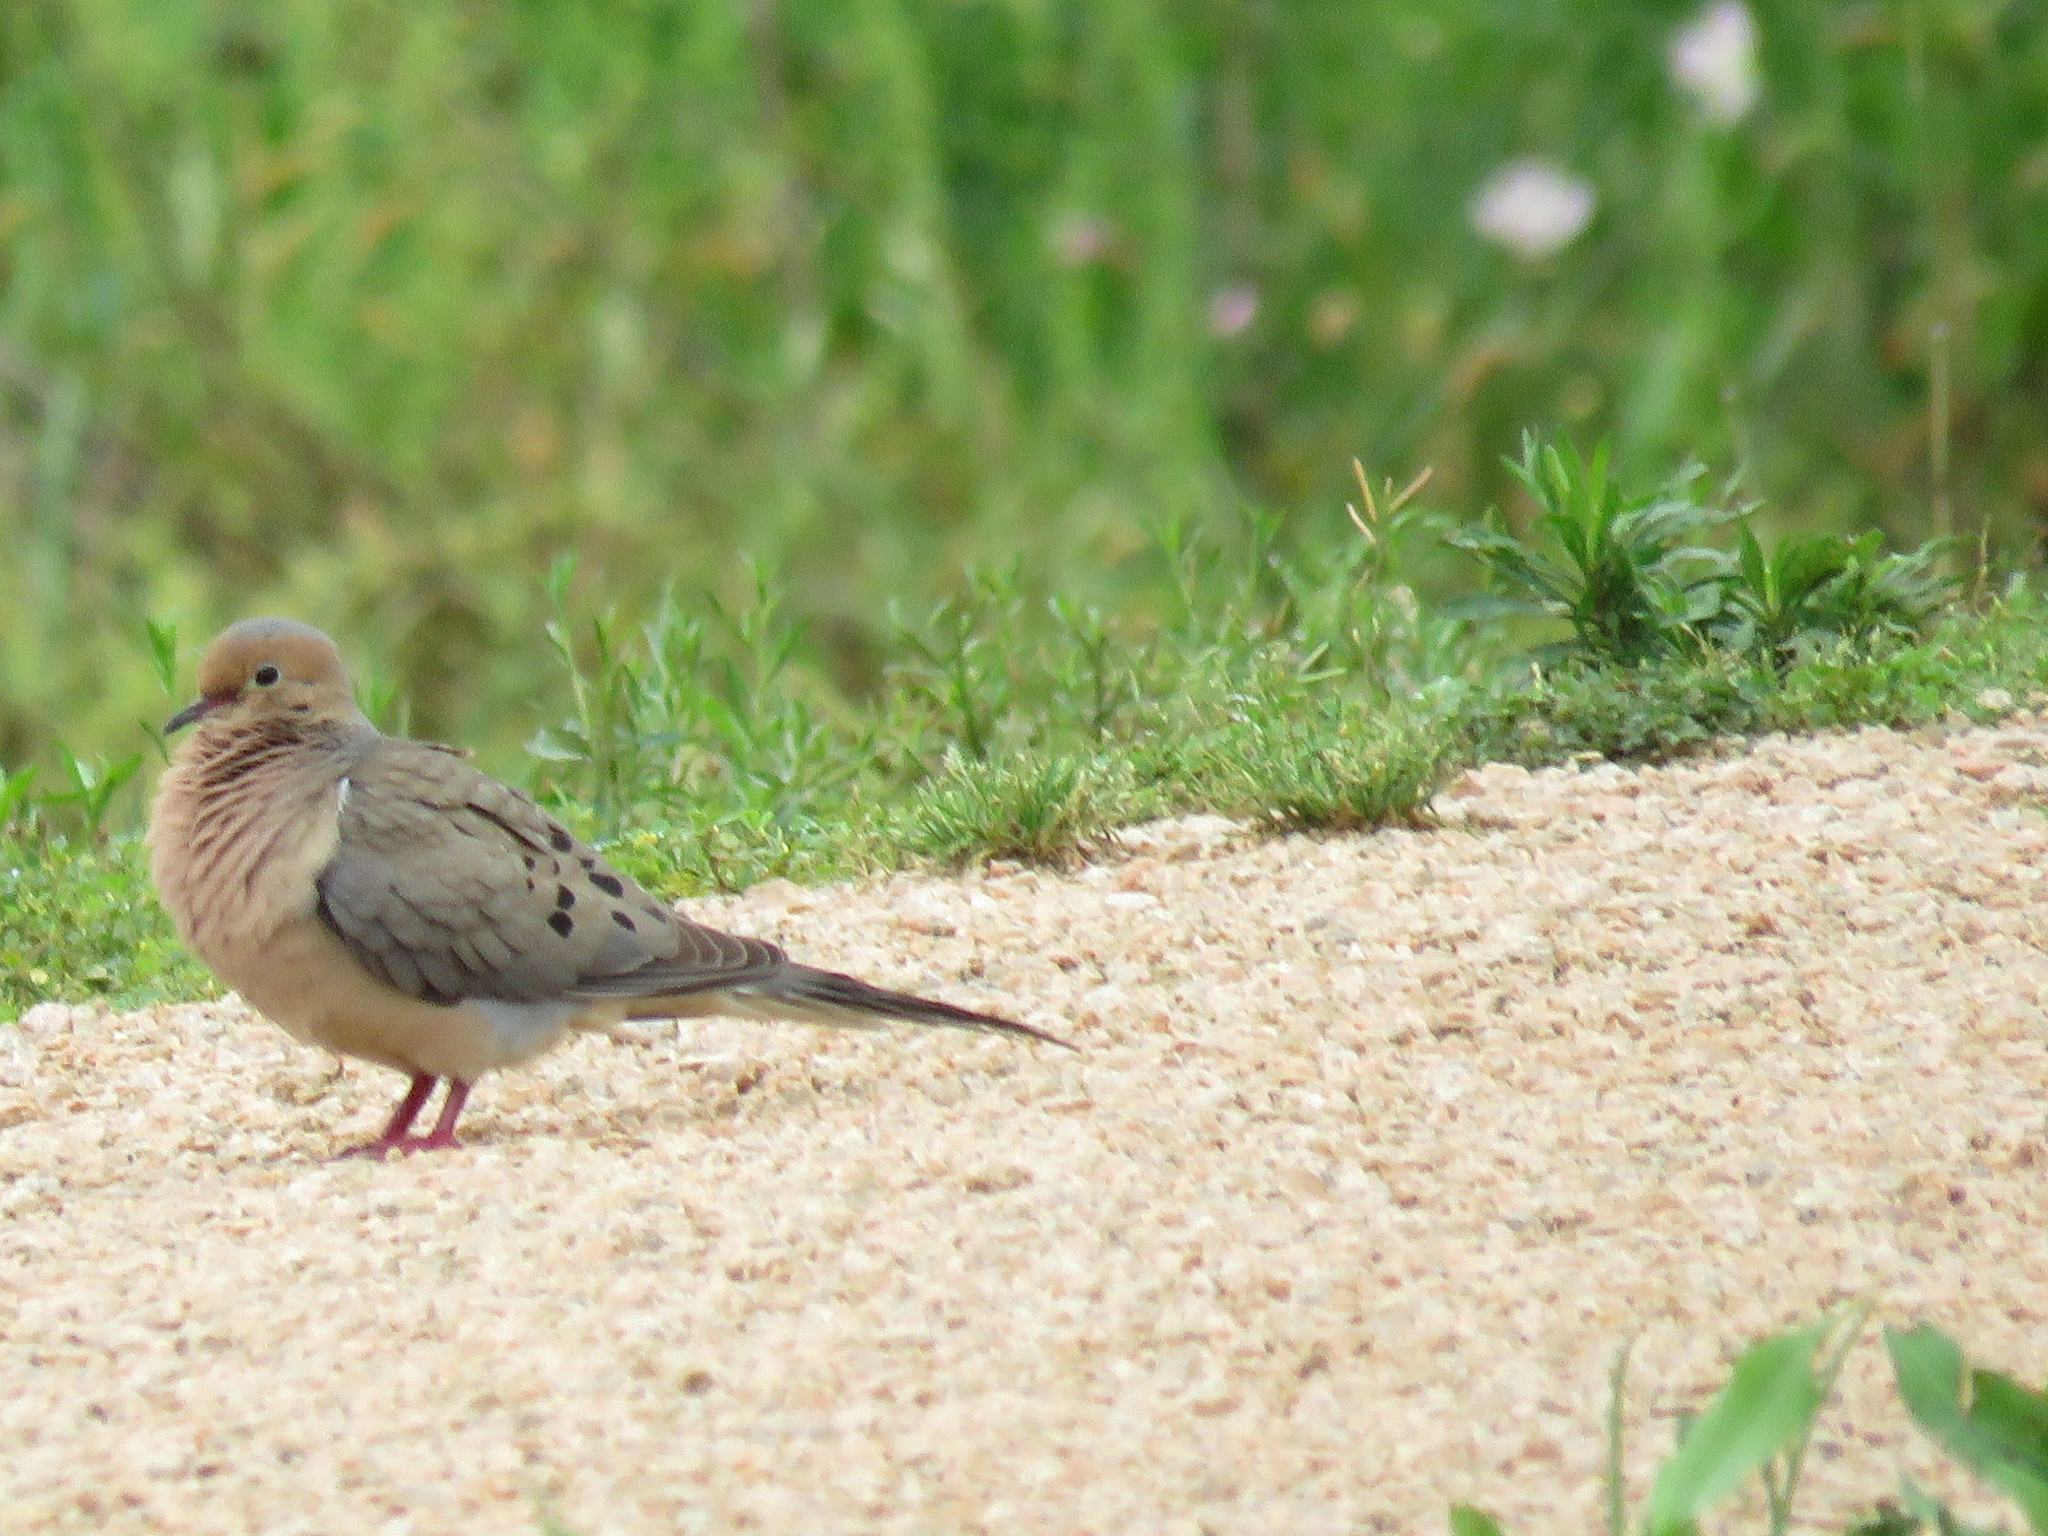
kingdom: Animalia
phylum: Chordata
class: Aves
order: Columbiformes
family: Columbidae
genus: Zenaida
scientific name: Zenaida macroura
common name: Mourning dove
